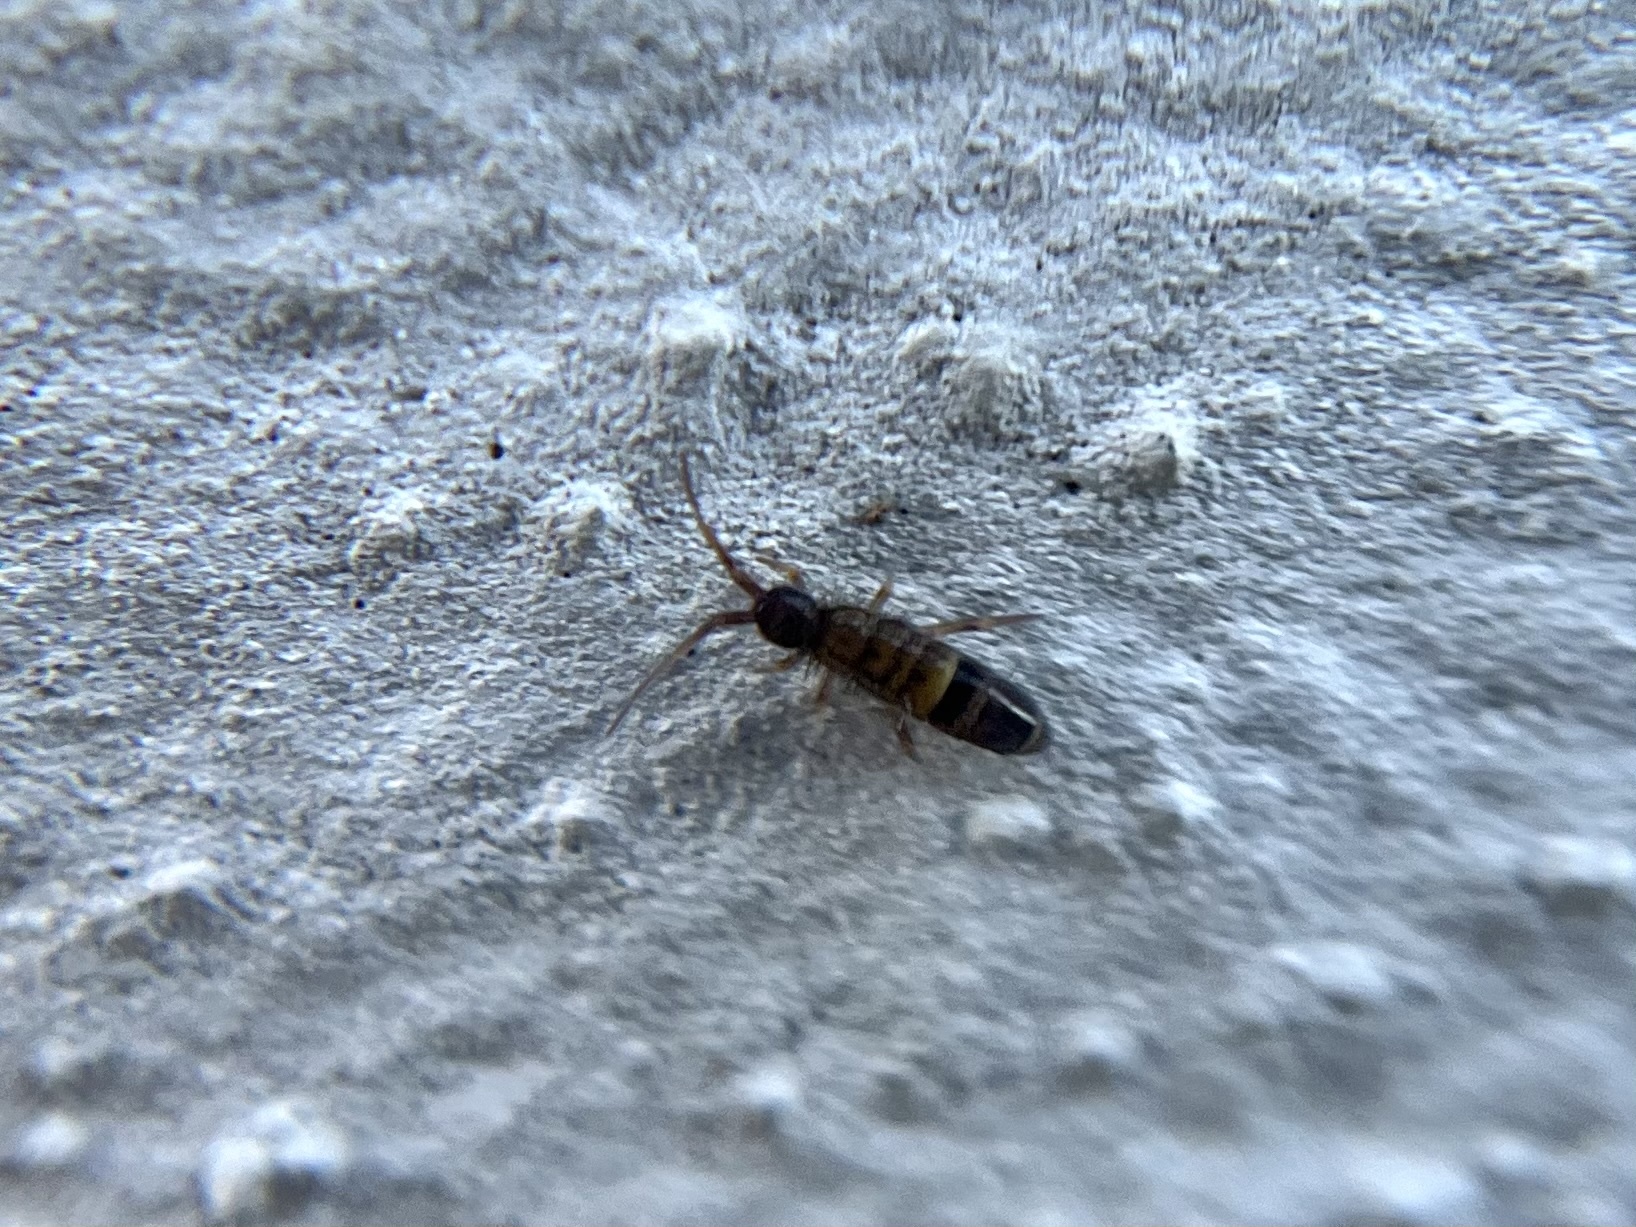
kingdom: Animalia
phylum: Arthropoda
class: Collembola
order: Entomobryomorpha
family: Orchesellidae
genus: Orchesella
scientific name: Orchesella cincta
